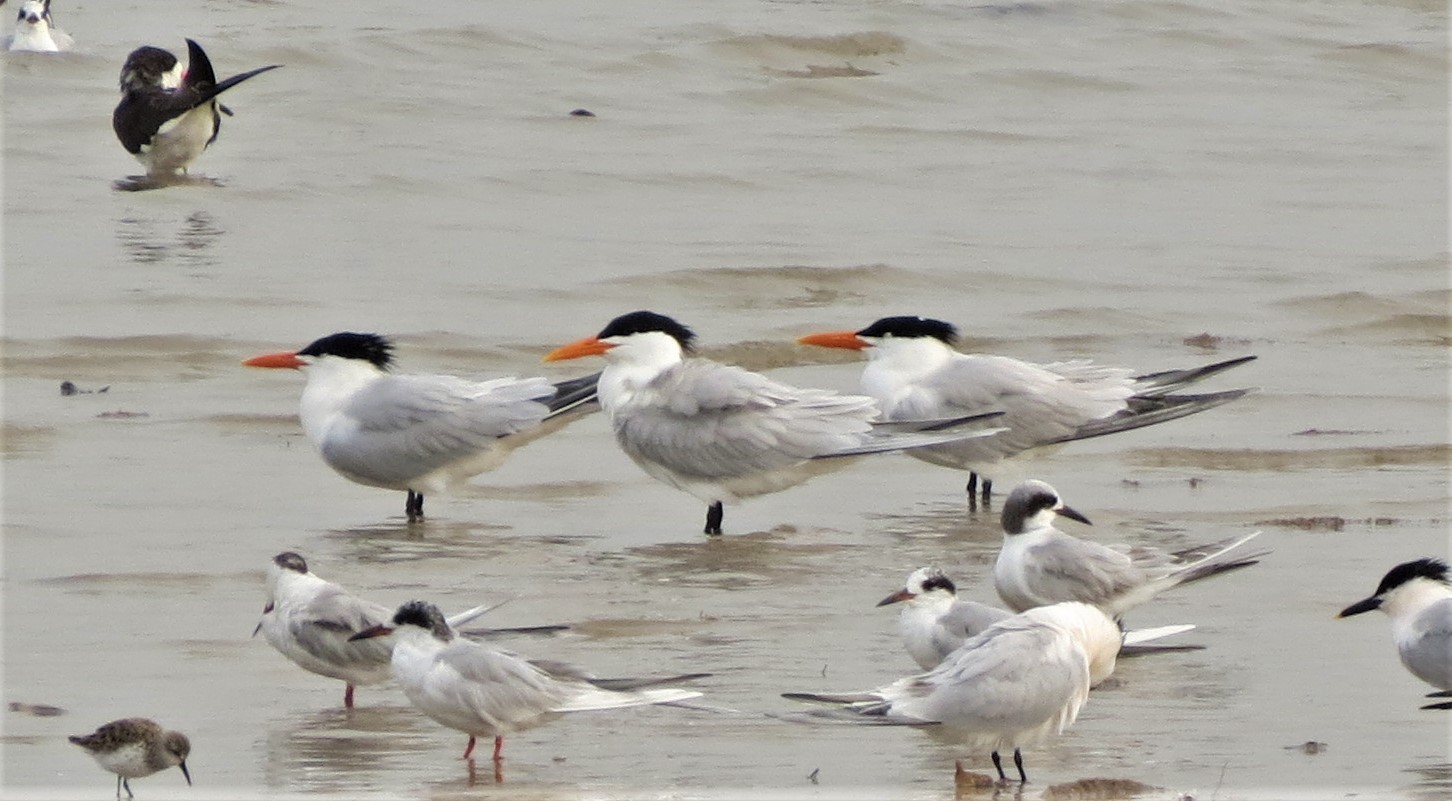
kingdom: Animalia
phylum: Chordata
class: Aves
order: Charadriiformes
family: Laridae
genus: Thalasseus
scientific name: Thalasseus maximus
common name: Royal tern
